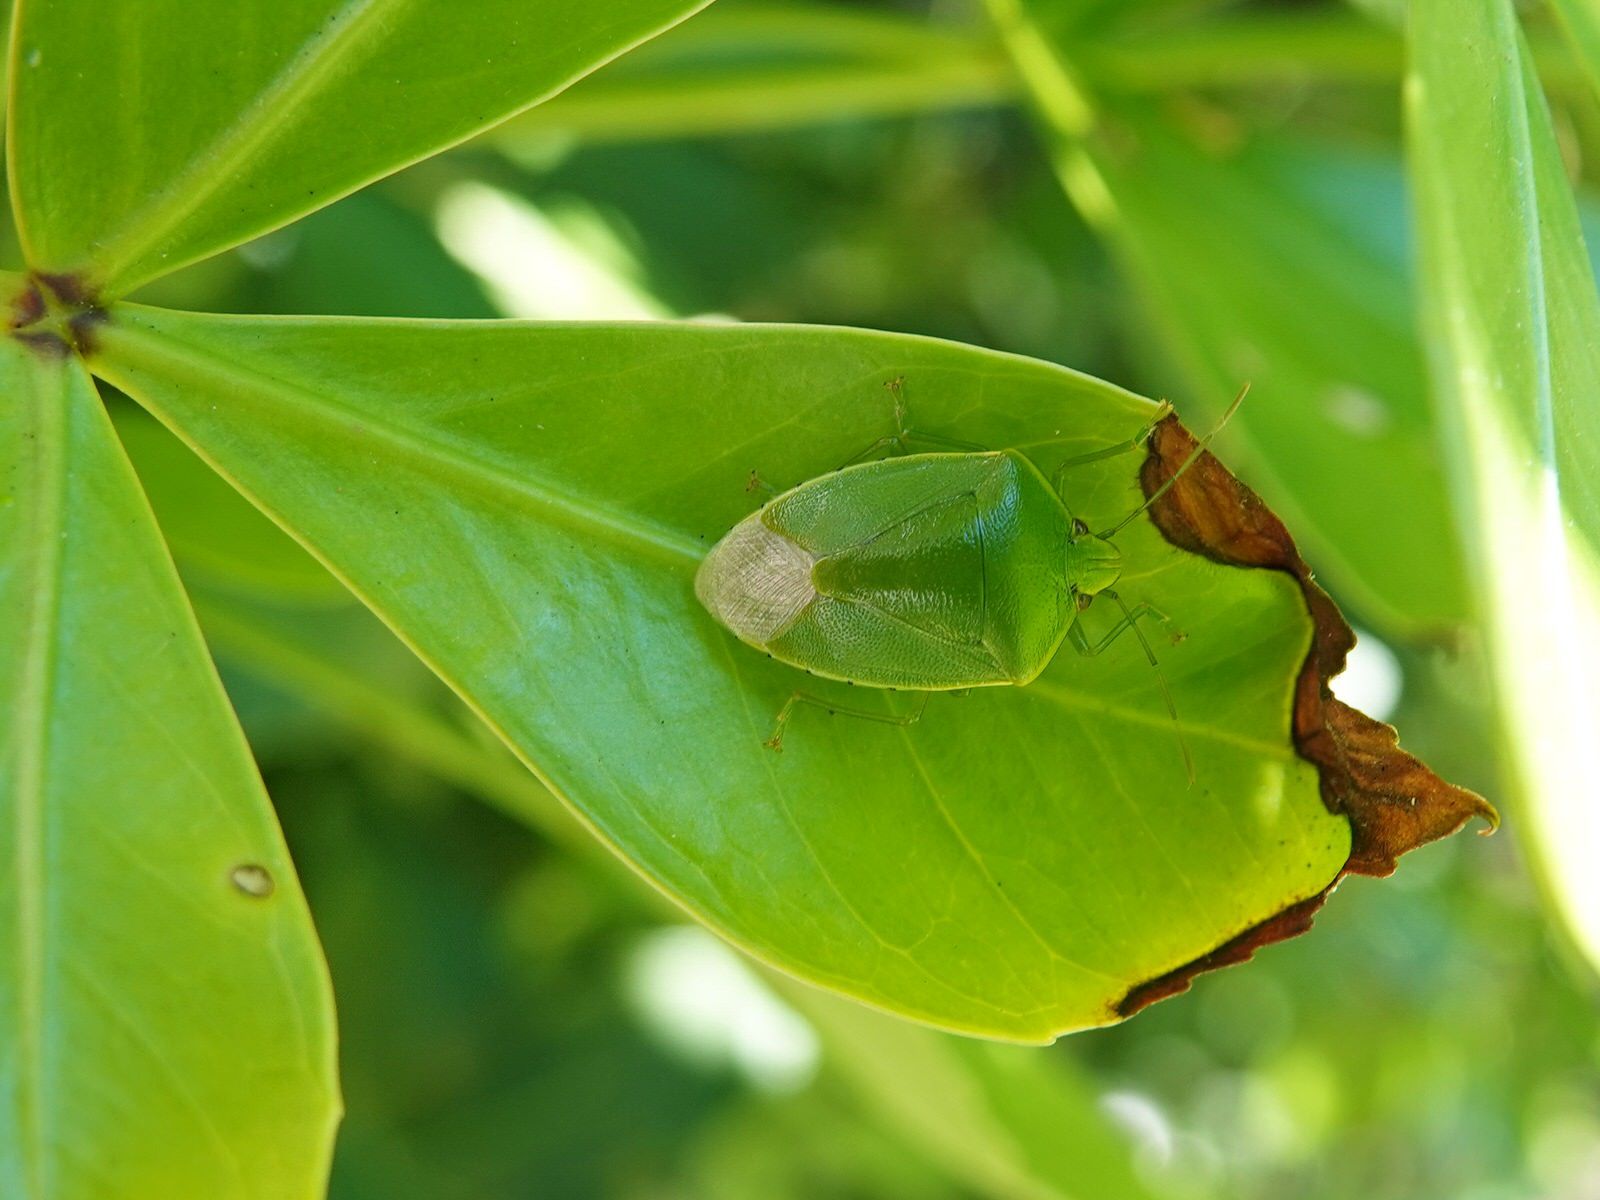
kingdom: Animalia
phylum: Arthropoda
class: Insecta
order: Hemiptera
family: Pentatomidae
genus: Glaucias
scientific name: Glaucias amyota
